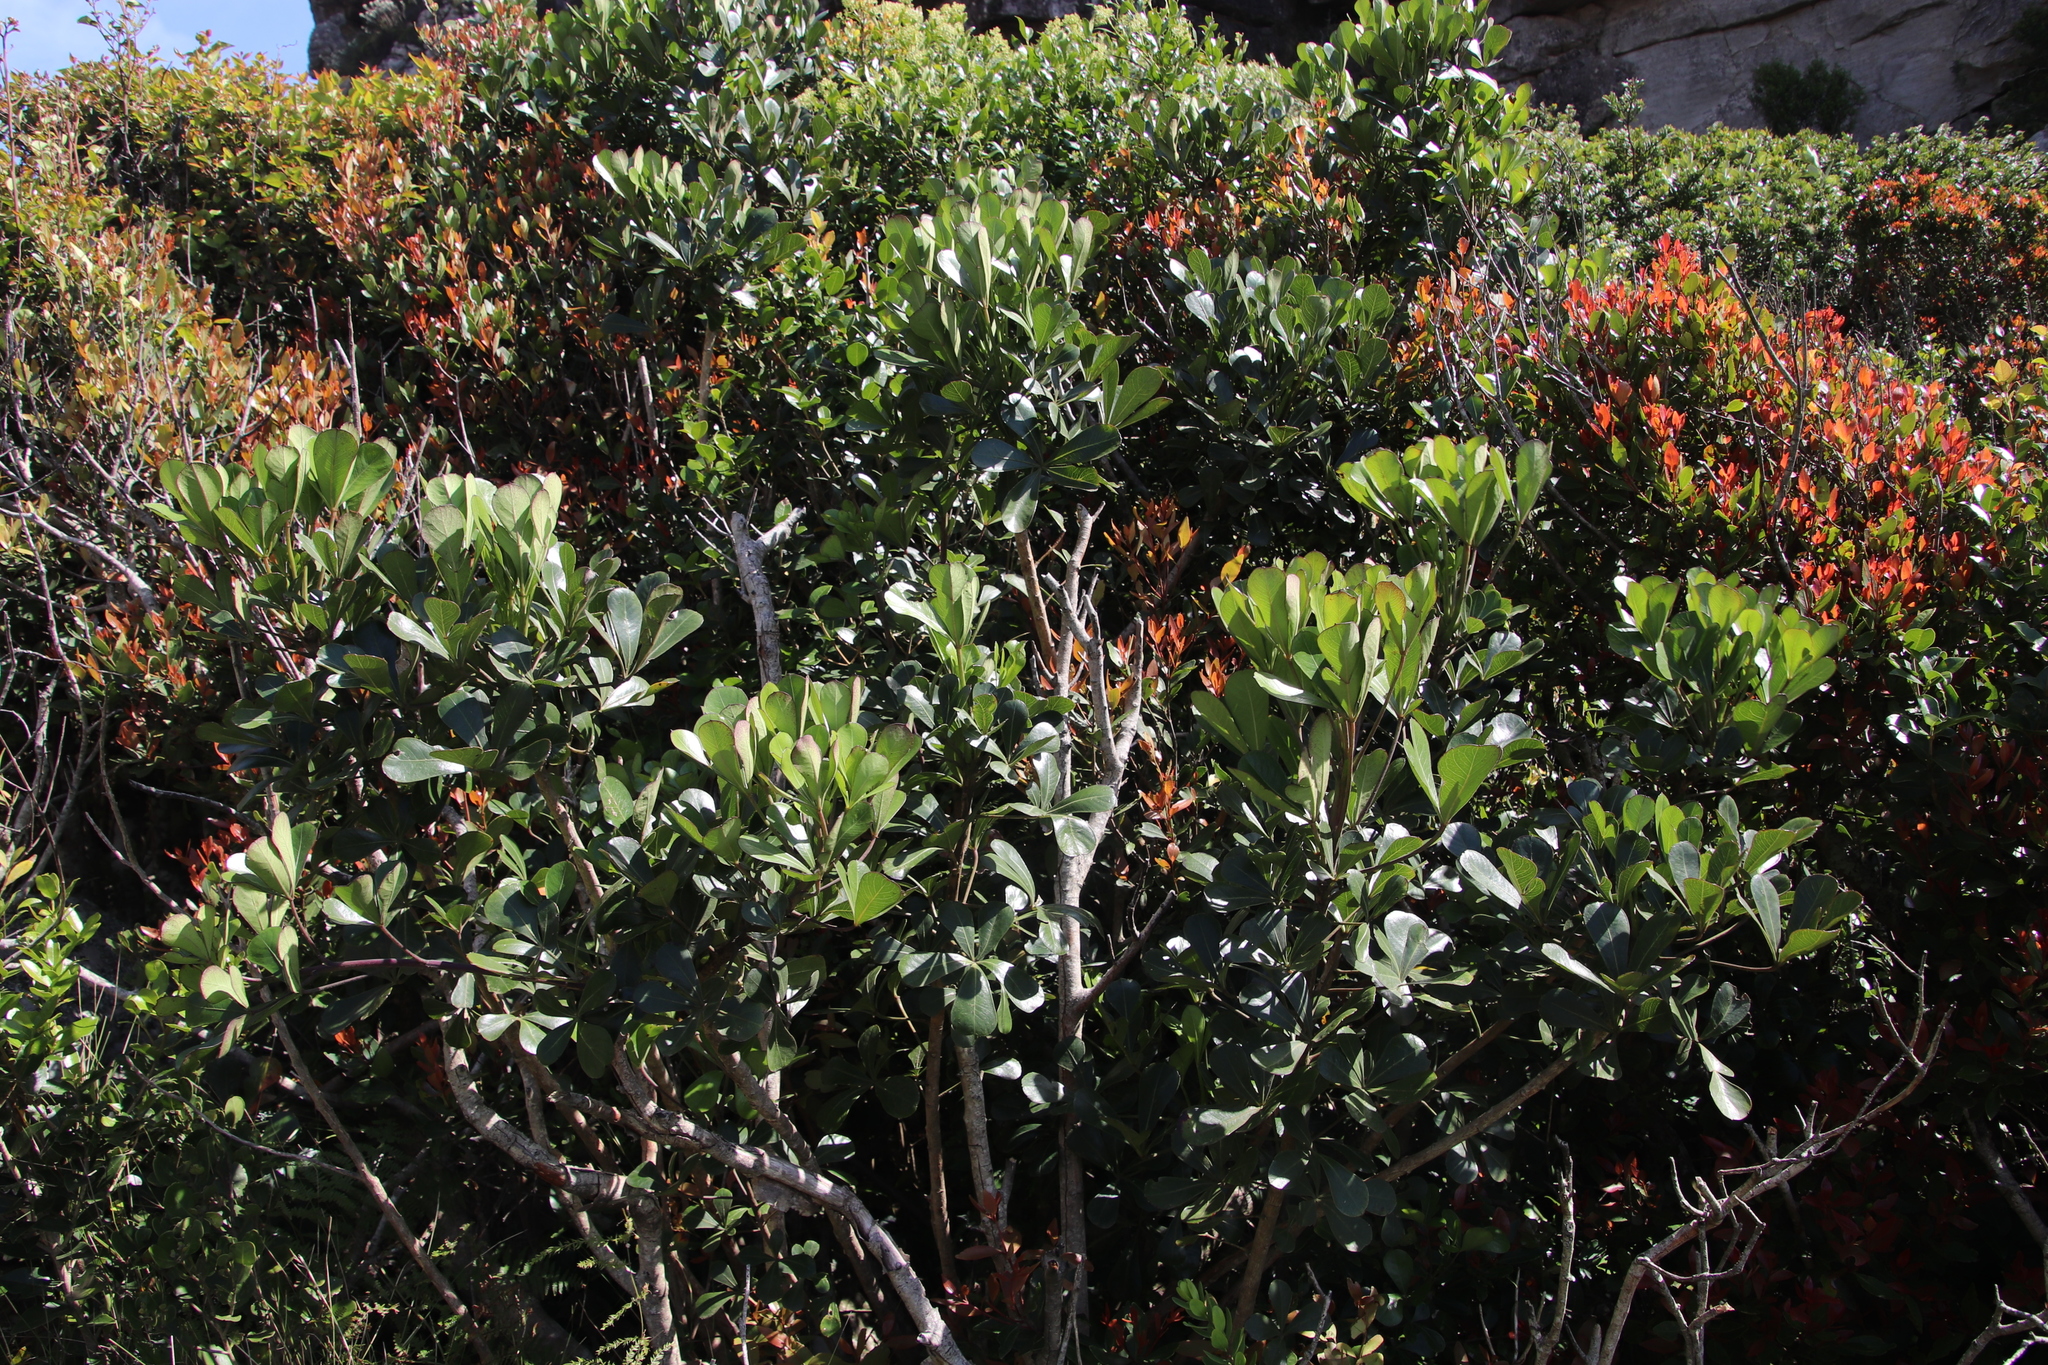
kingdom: Plantae
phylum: Tracheophyta
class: Magnoliopsida
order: Apiales
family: Araliaceae
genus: Cussonia
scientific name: Cussonia thyrsiflora
